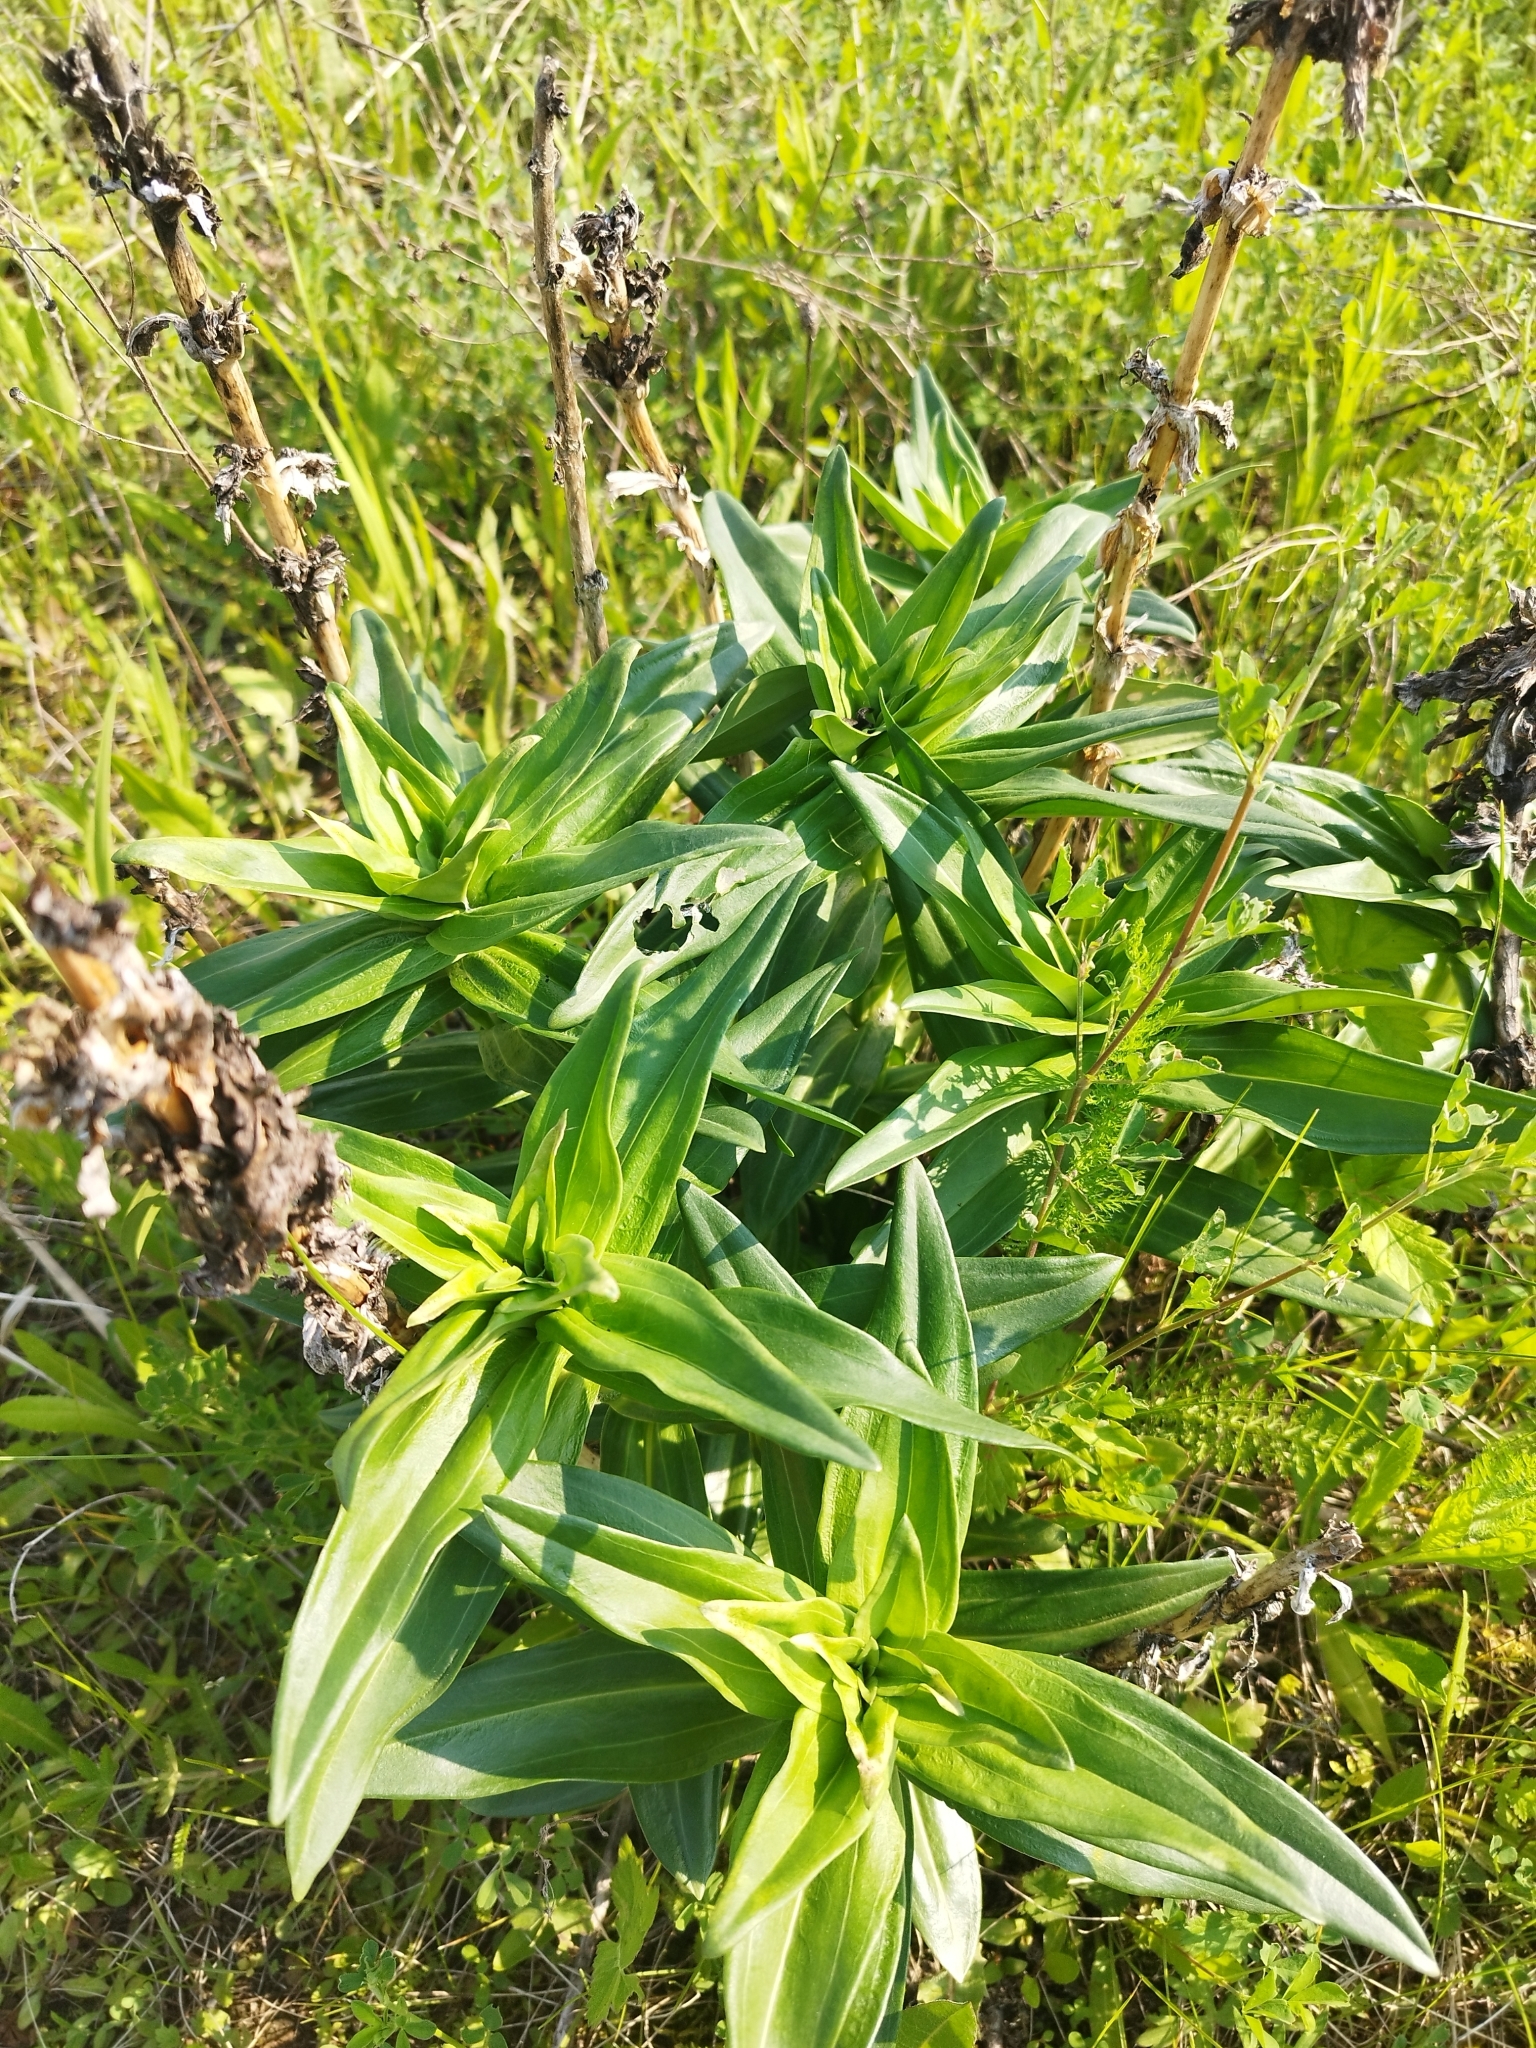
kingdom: Plantae
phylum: Tracheophyta
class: Magnoliopsida
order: Gentianales
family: Gentianaceae
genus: Gentiana
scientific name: Gentiana cruciata
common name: Cross gentian
